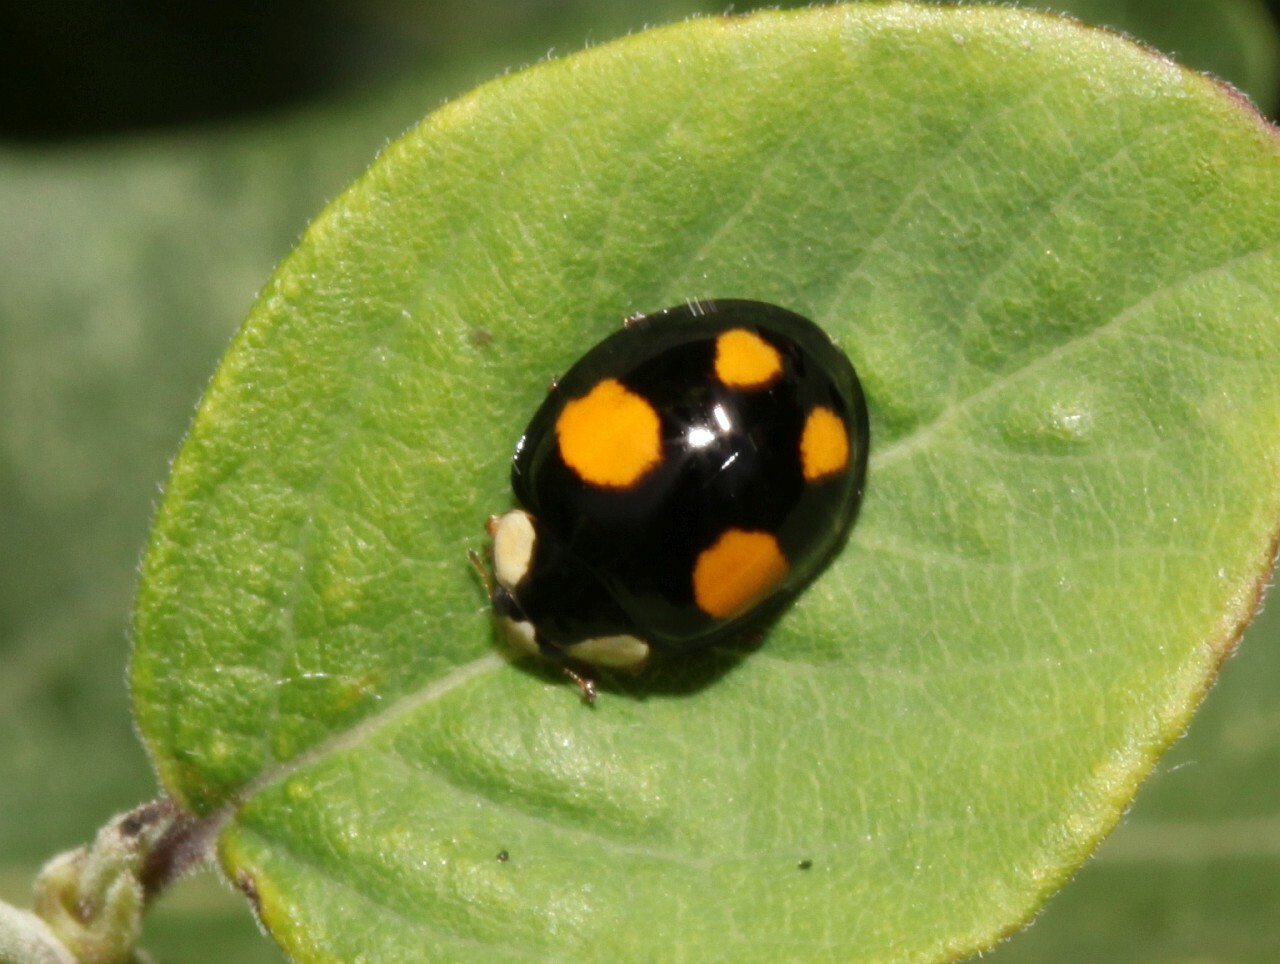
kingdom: Animalia
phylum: Arthropoda
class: Insecta
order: Coleoptera
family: Coccinellidae
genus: Harmonia
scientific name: Harmonia axyridis
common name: Harlequin ladybird
